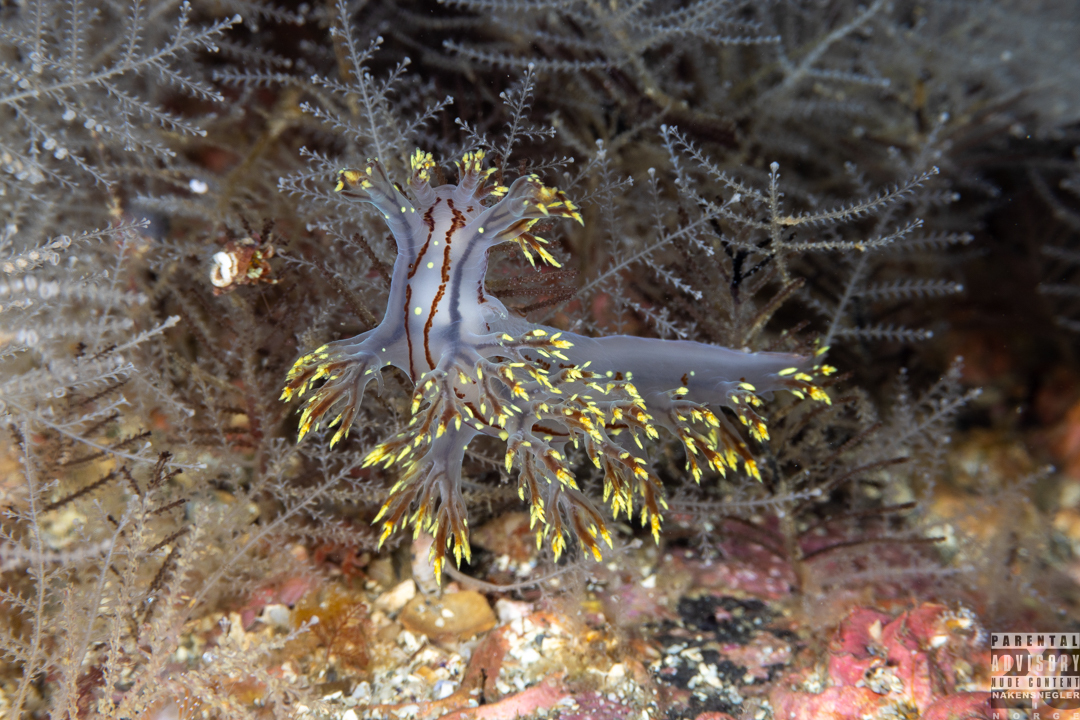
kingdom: Animalia
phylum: Mollusca
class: Gastropoda
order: Nudibranchia
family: Dendronotidae
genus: Dendronotus
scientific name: Dendronotus yrjargul
